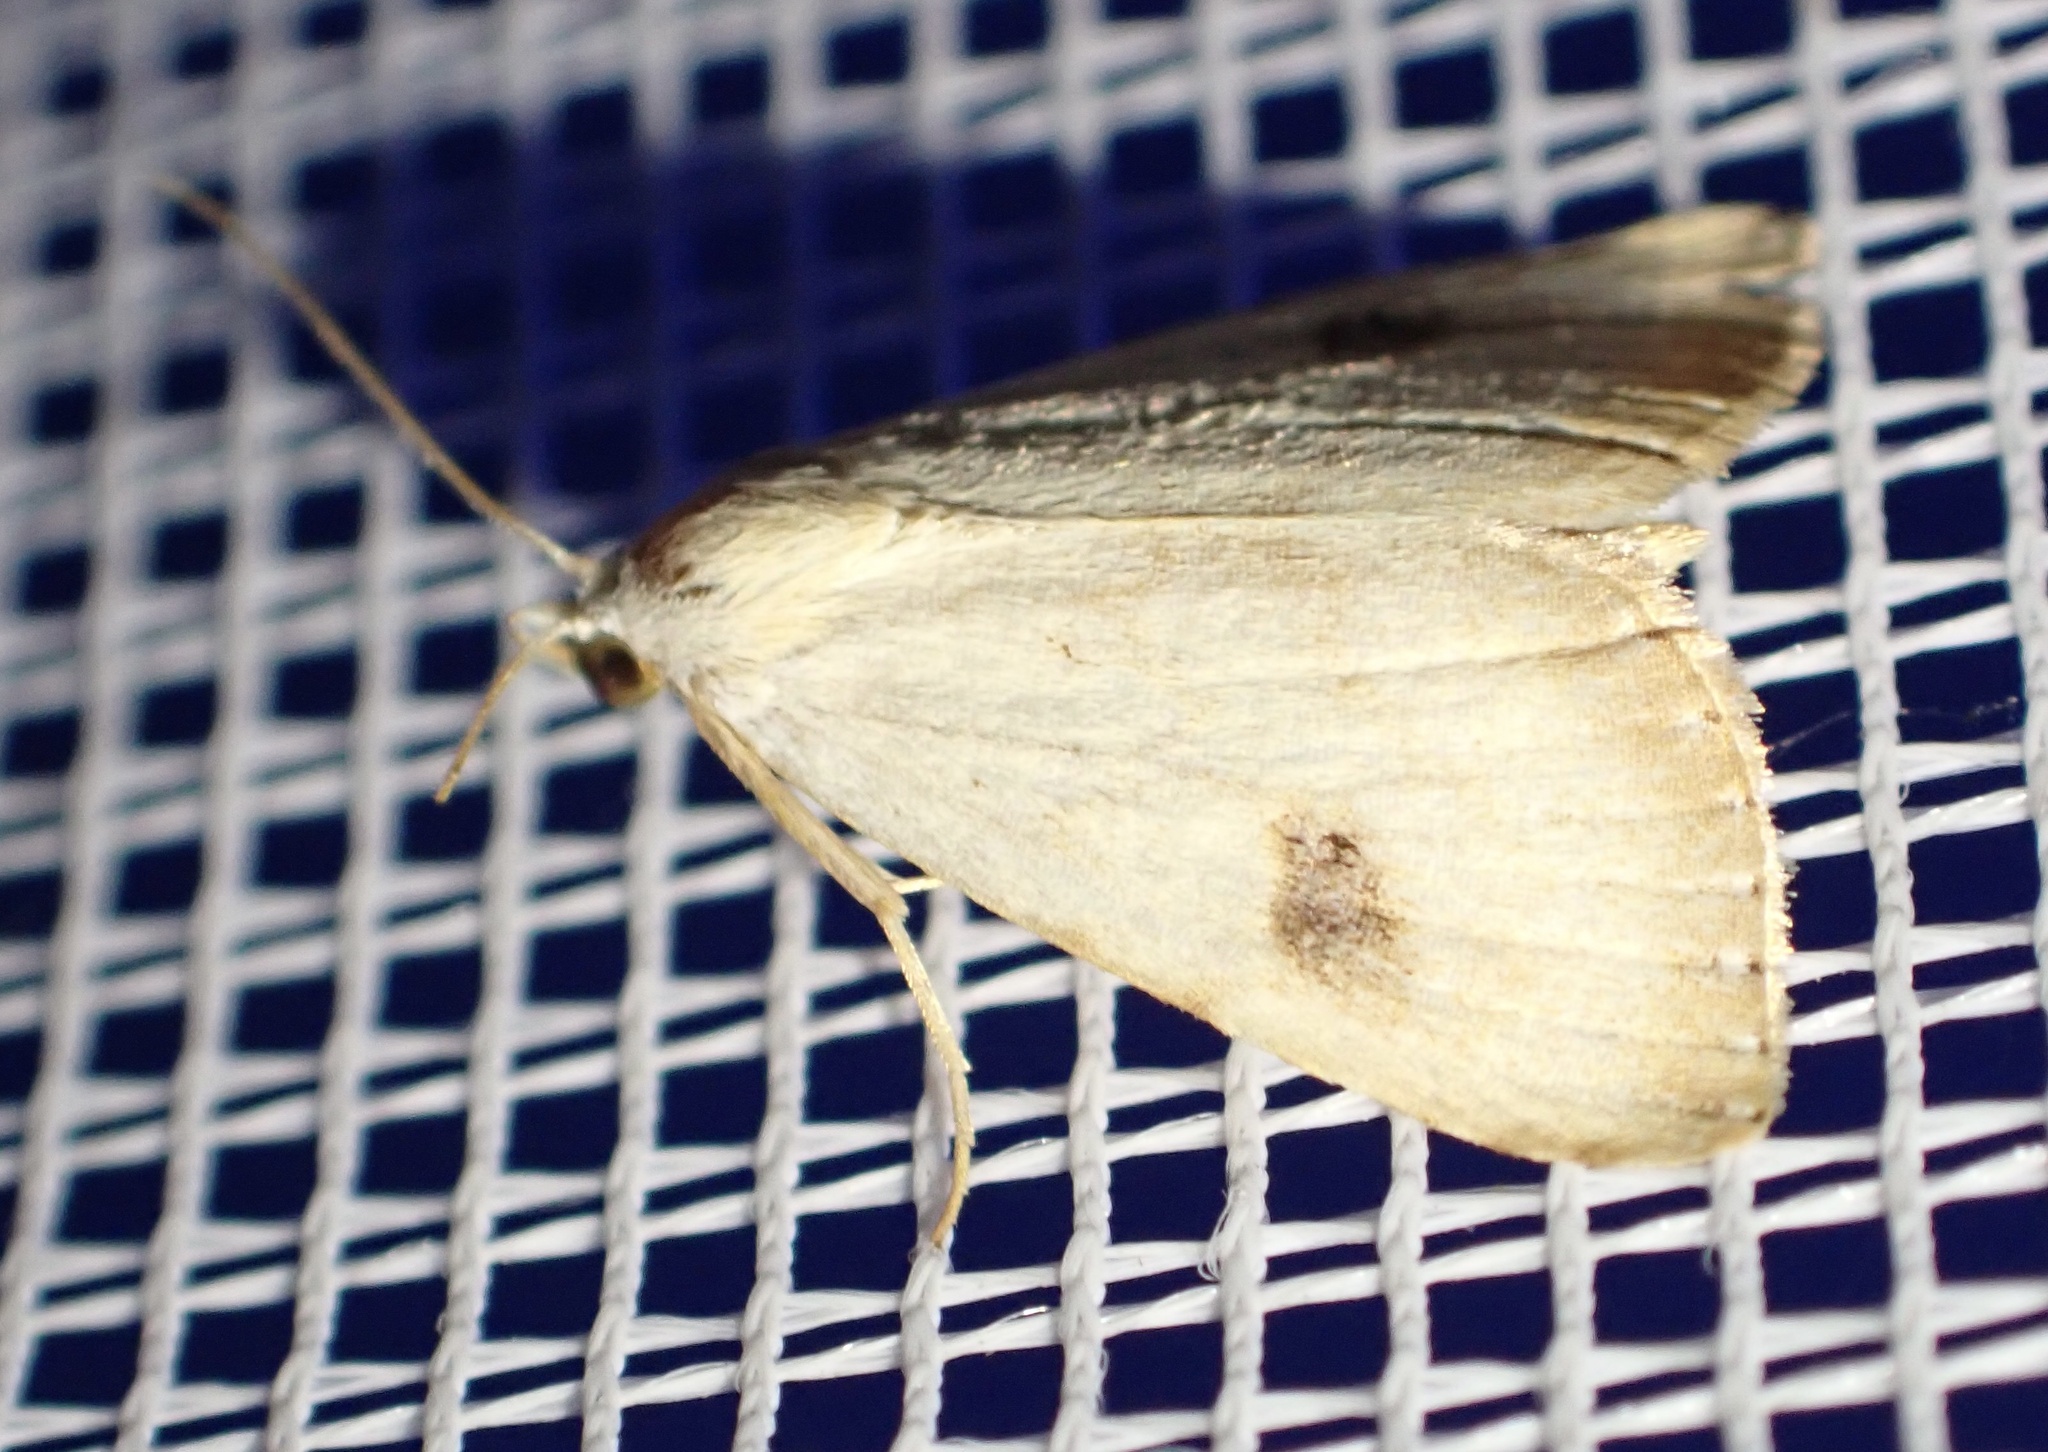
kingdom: Animalia
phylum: Arthropoda
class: Insecta
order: Lepidoptera
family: Erebidae
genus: Rivula
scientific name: Rivula sericealis
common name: Straw dot
